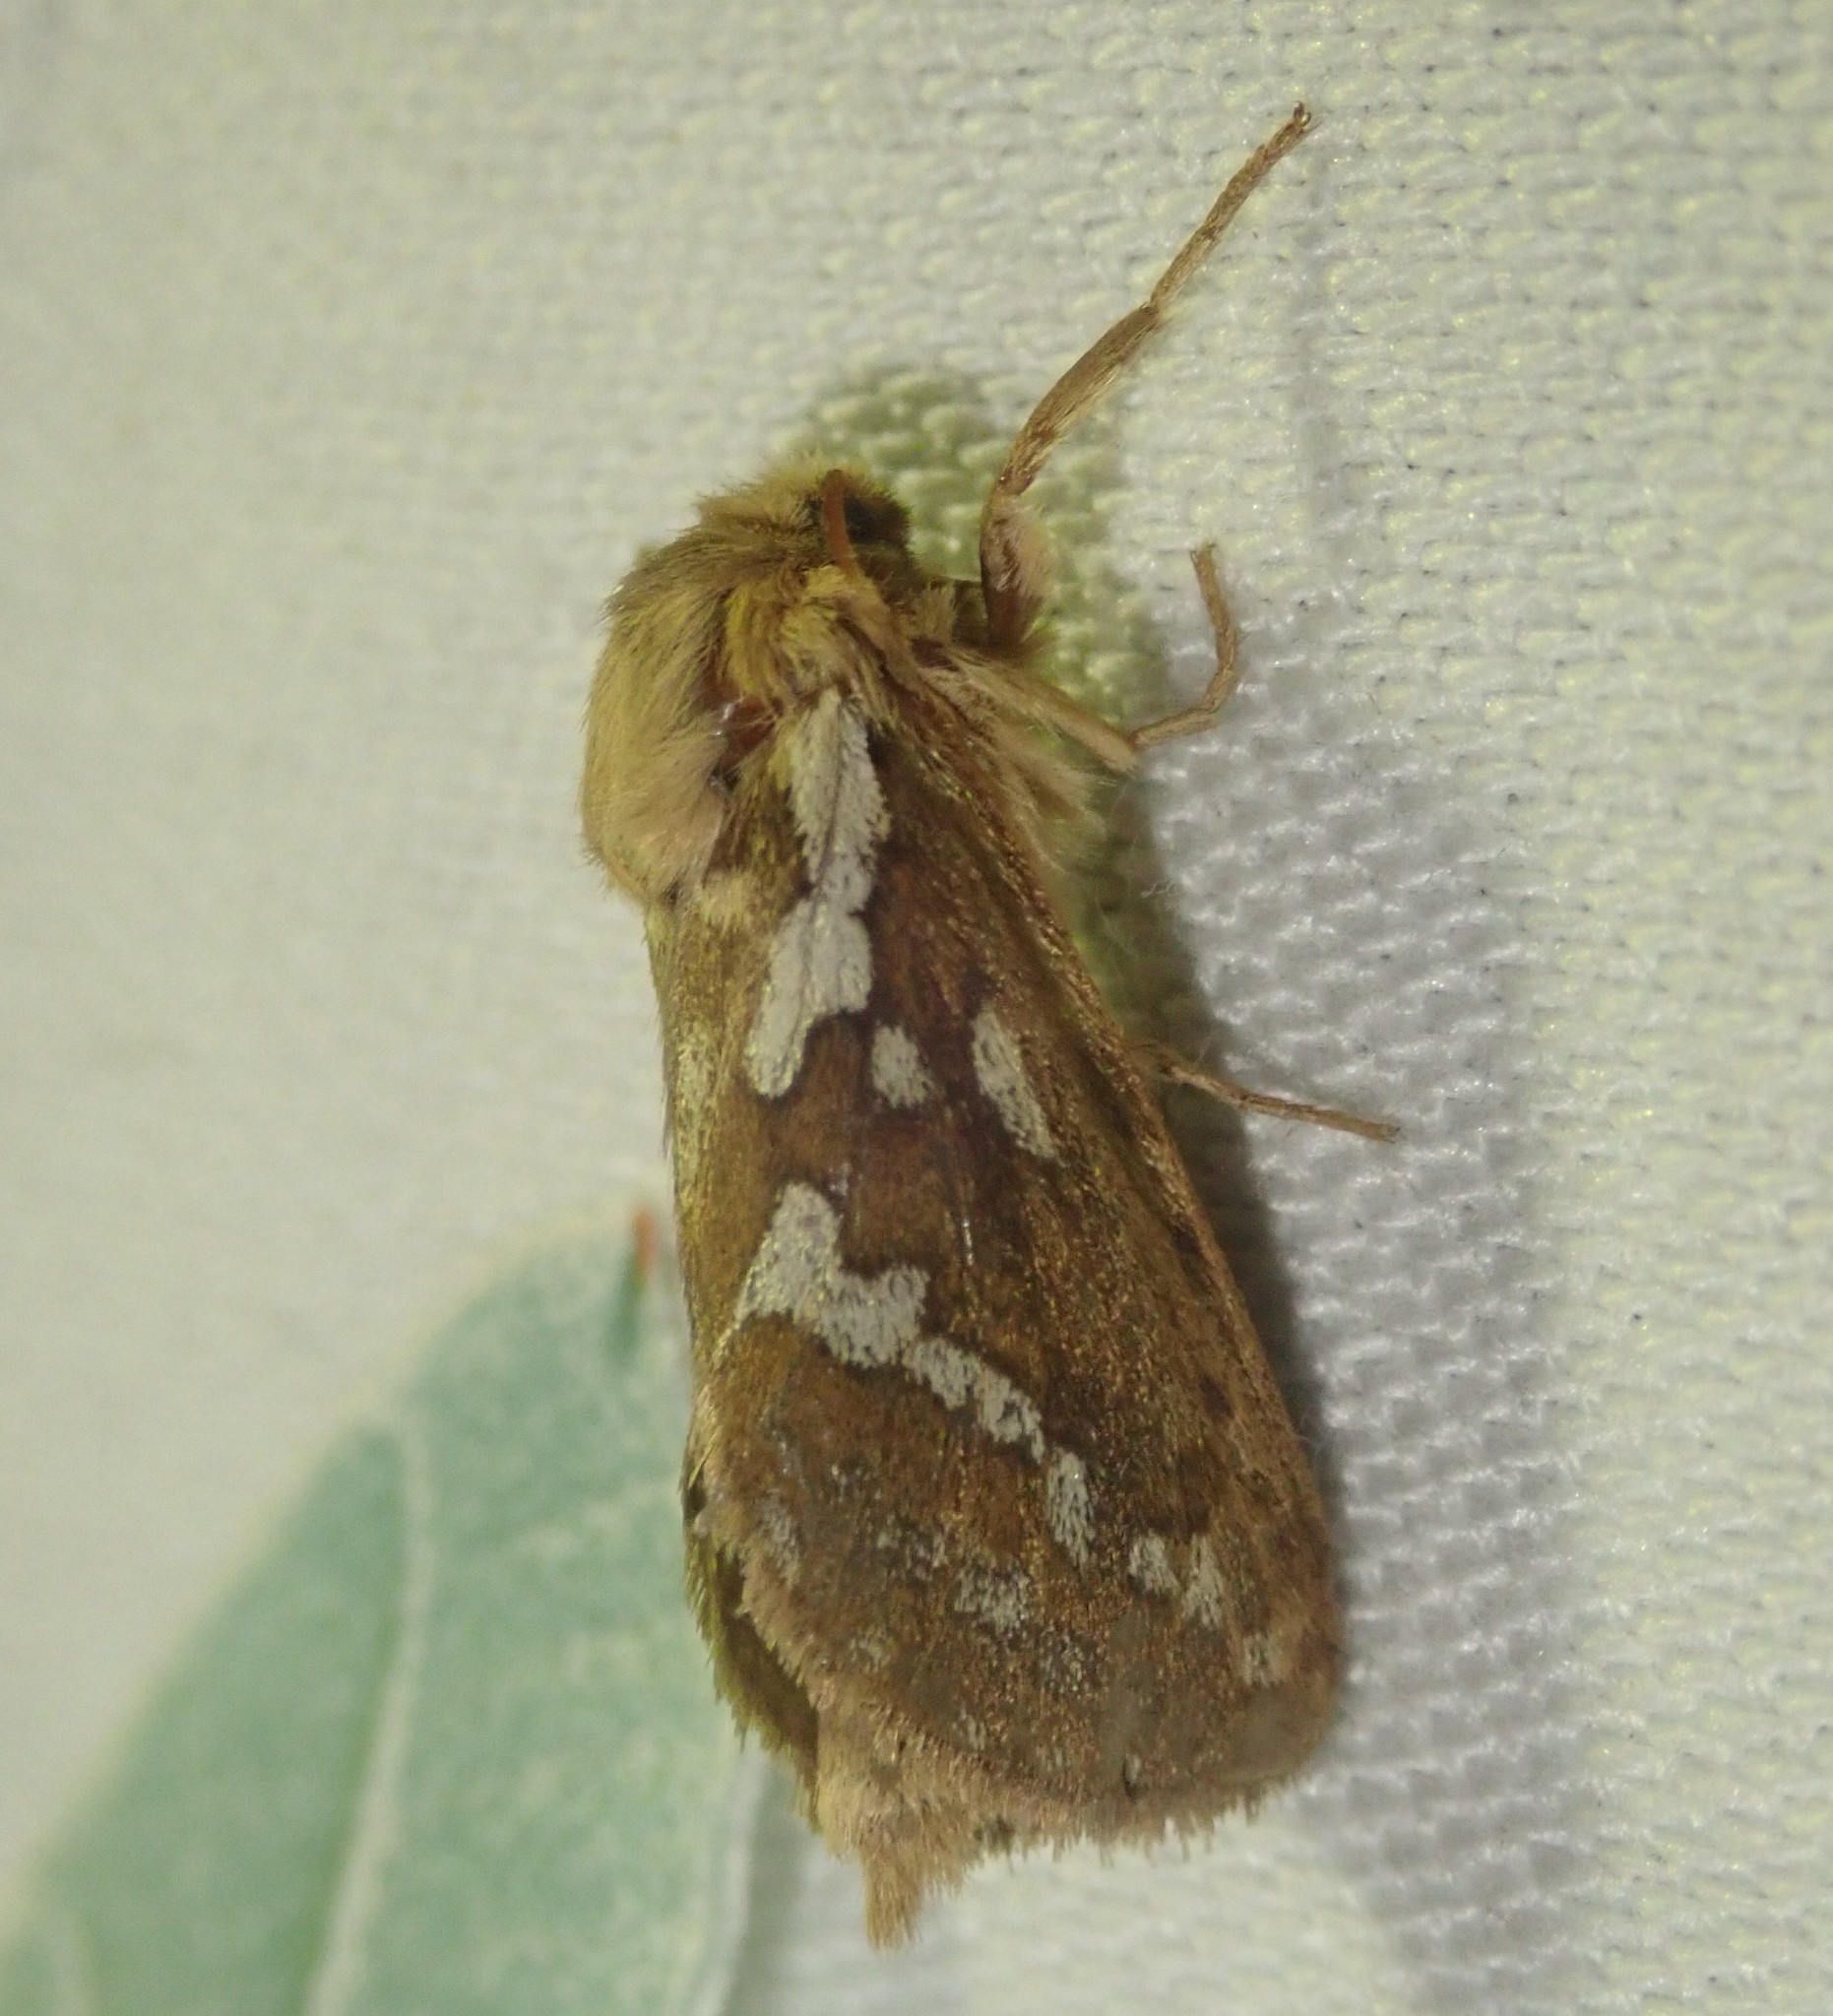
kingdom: Animalia
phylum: Arthropoda
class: Insecta
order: Lepidoptera
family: Hepialidae
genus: Korscheltellus
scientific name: Korscheltellus lupulina
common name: Common swift
